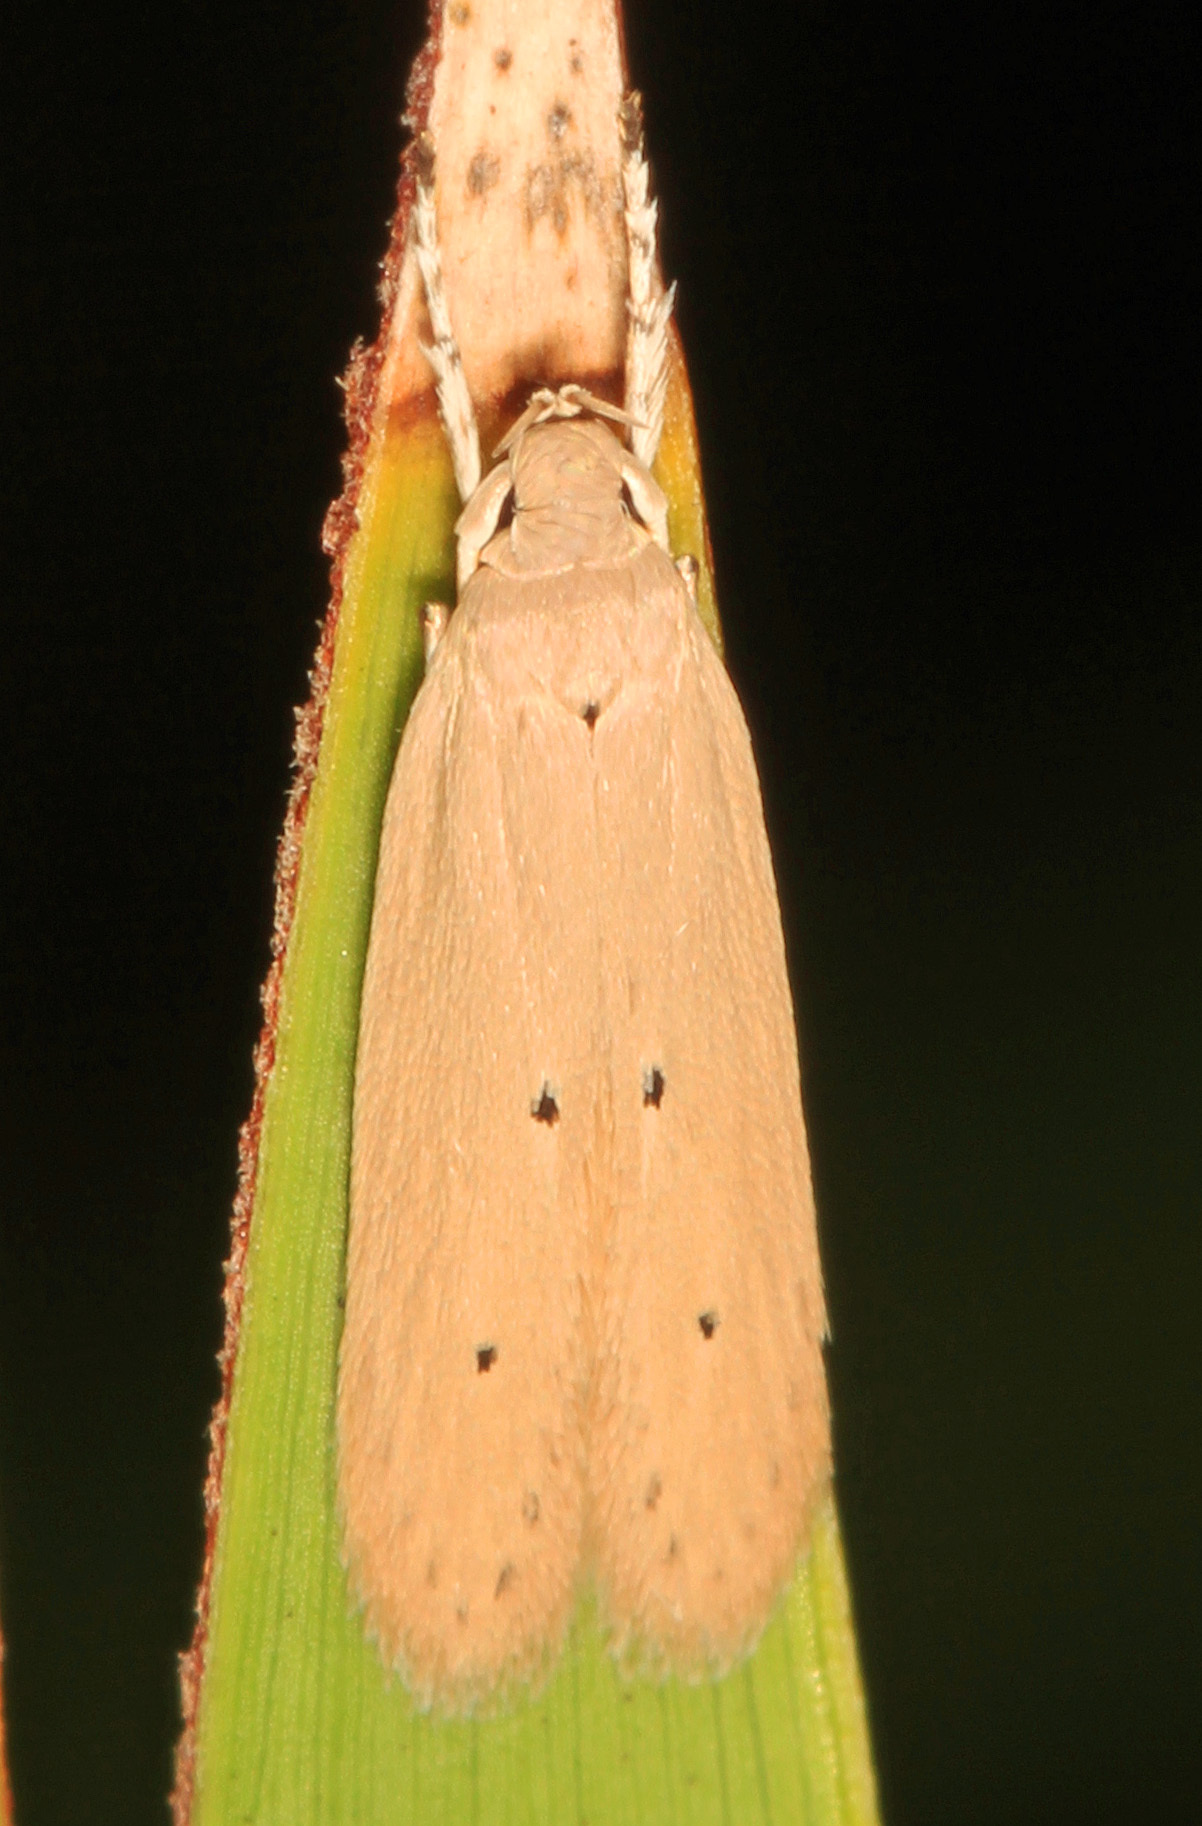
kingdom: Animalia
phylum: Arthropoda
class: Insecta
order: Lepidoptera
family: Coleophoridae
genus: Homaledra
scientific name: Homaledra sabalella
